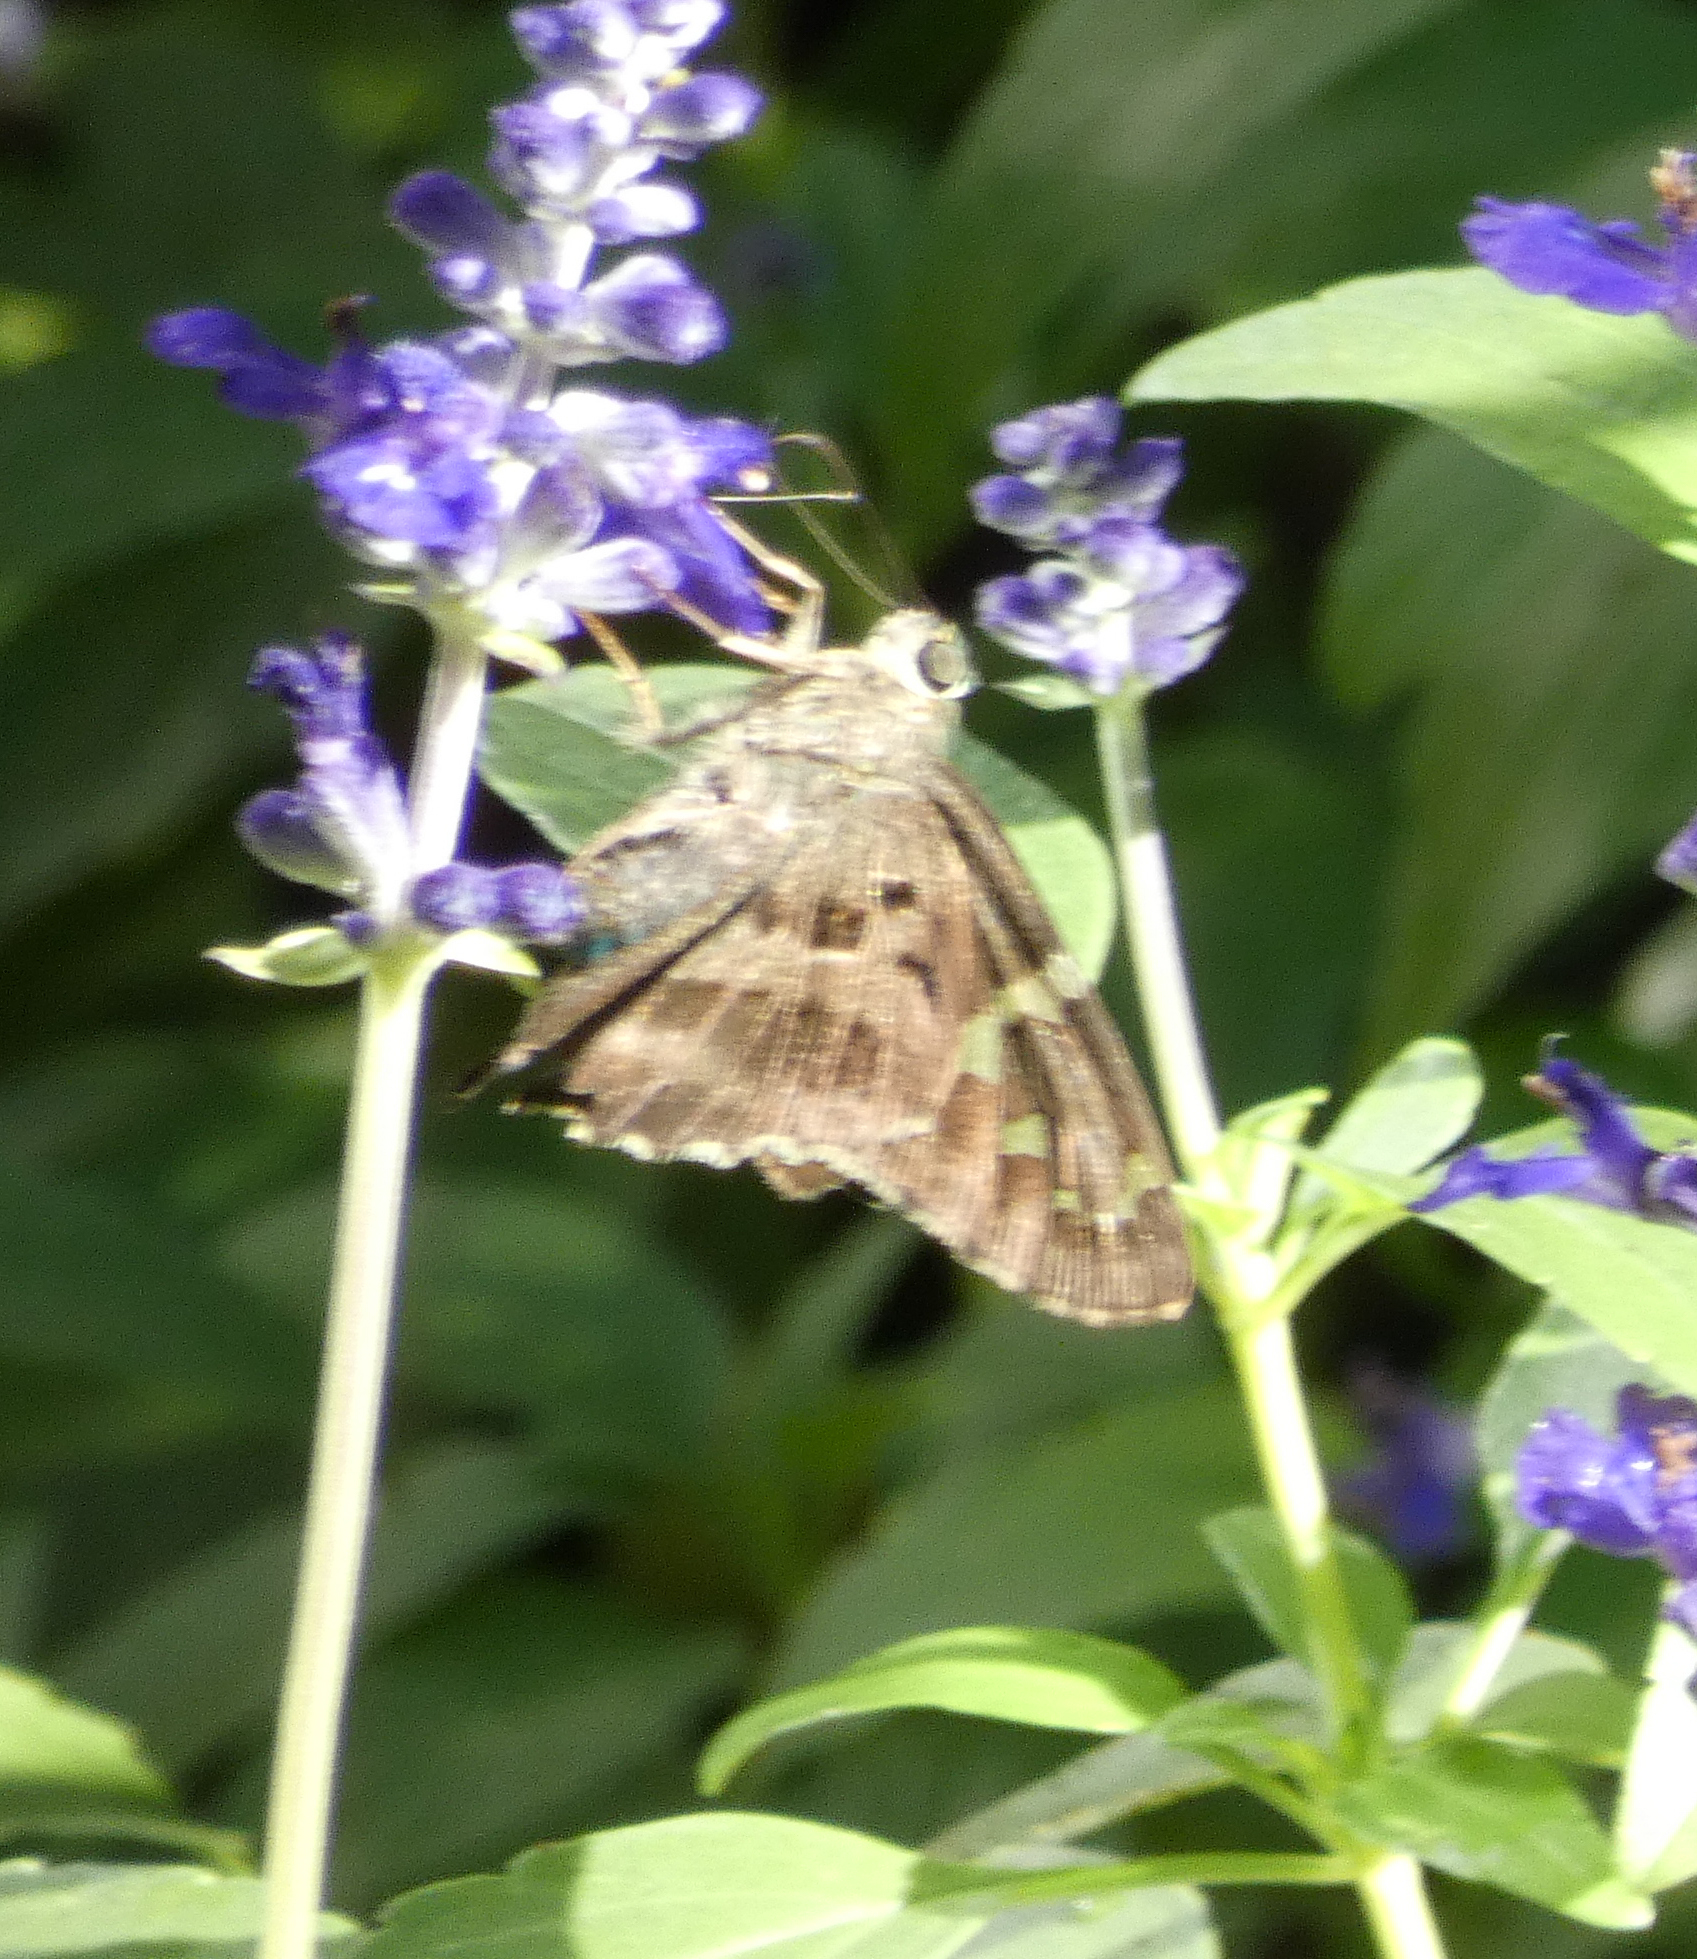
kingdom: Animalia
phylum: Arthropoda
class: Insecta
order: Lepidoptera
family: Hesperiidae
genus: Urbanus
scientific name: Urbanus proteus
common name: Long-tailed skipper
